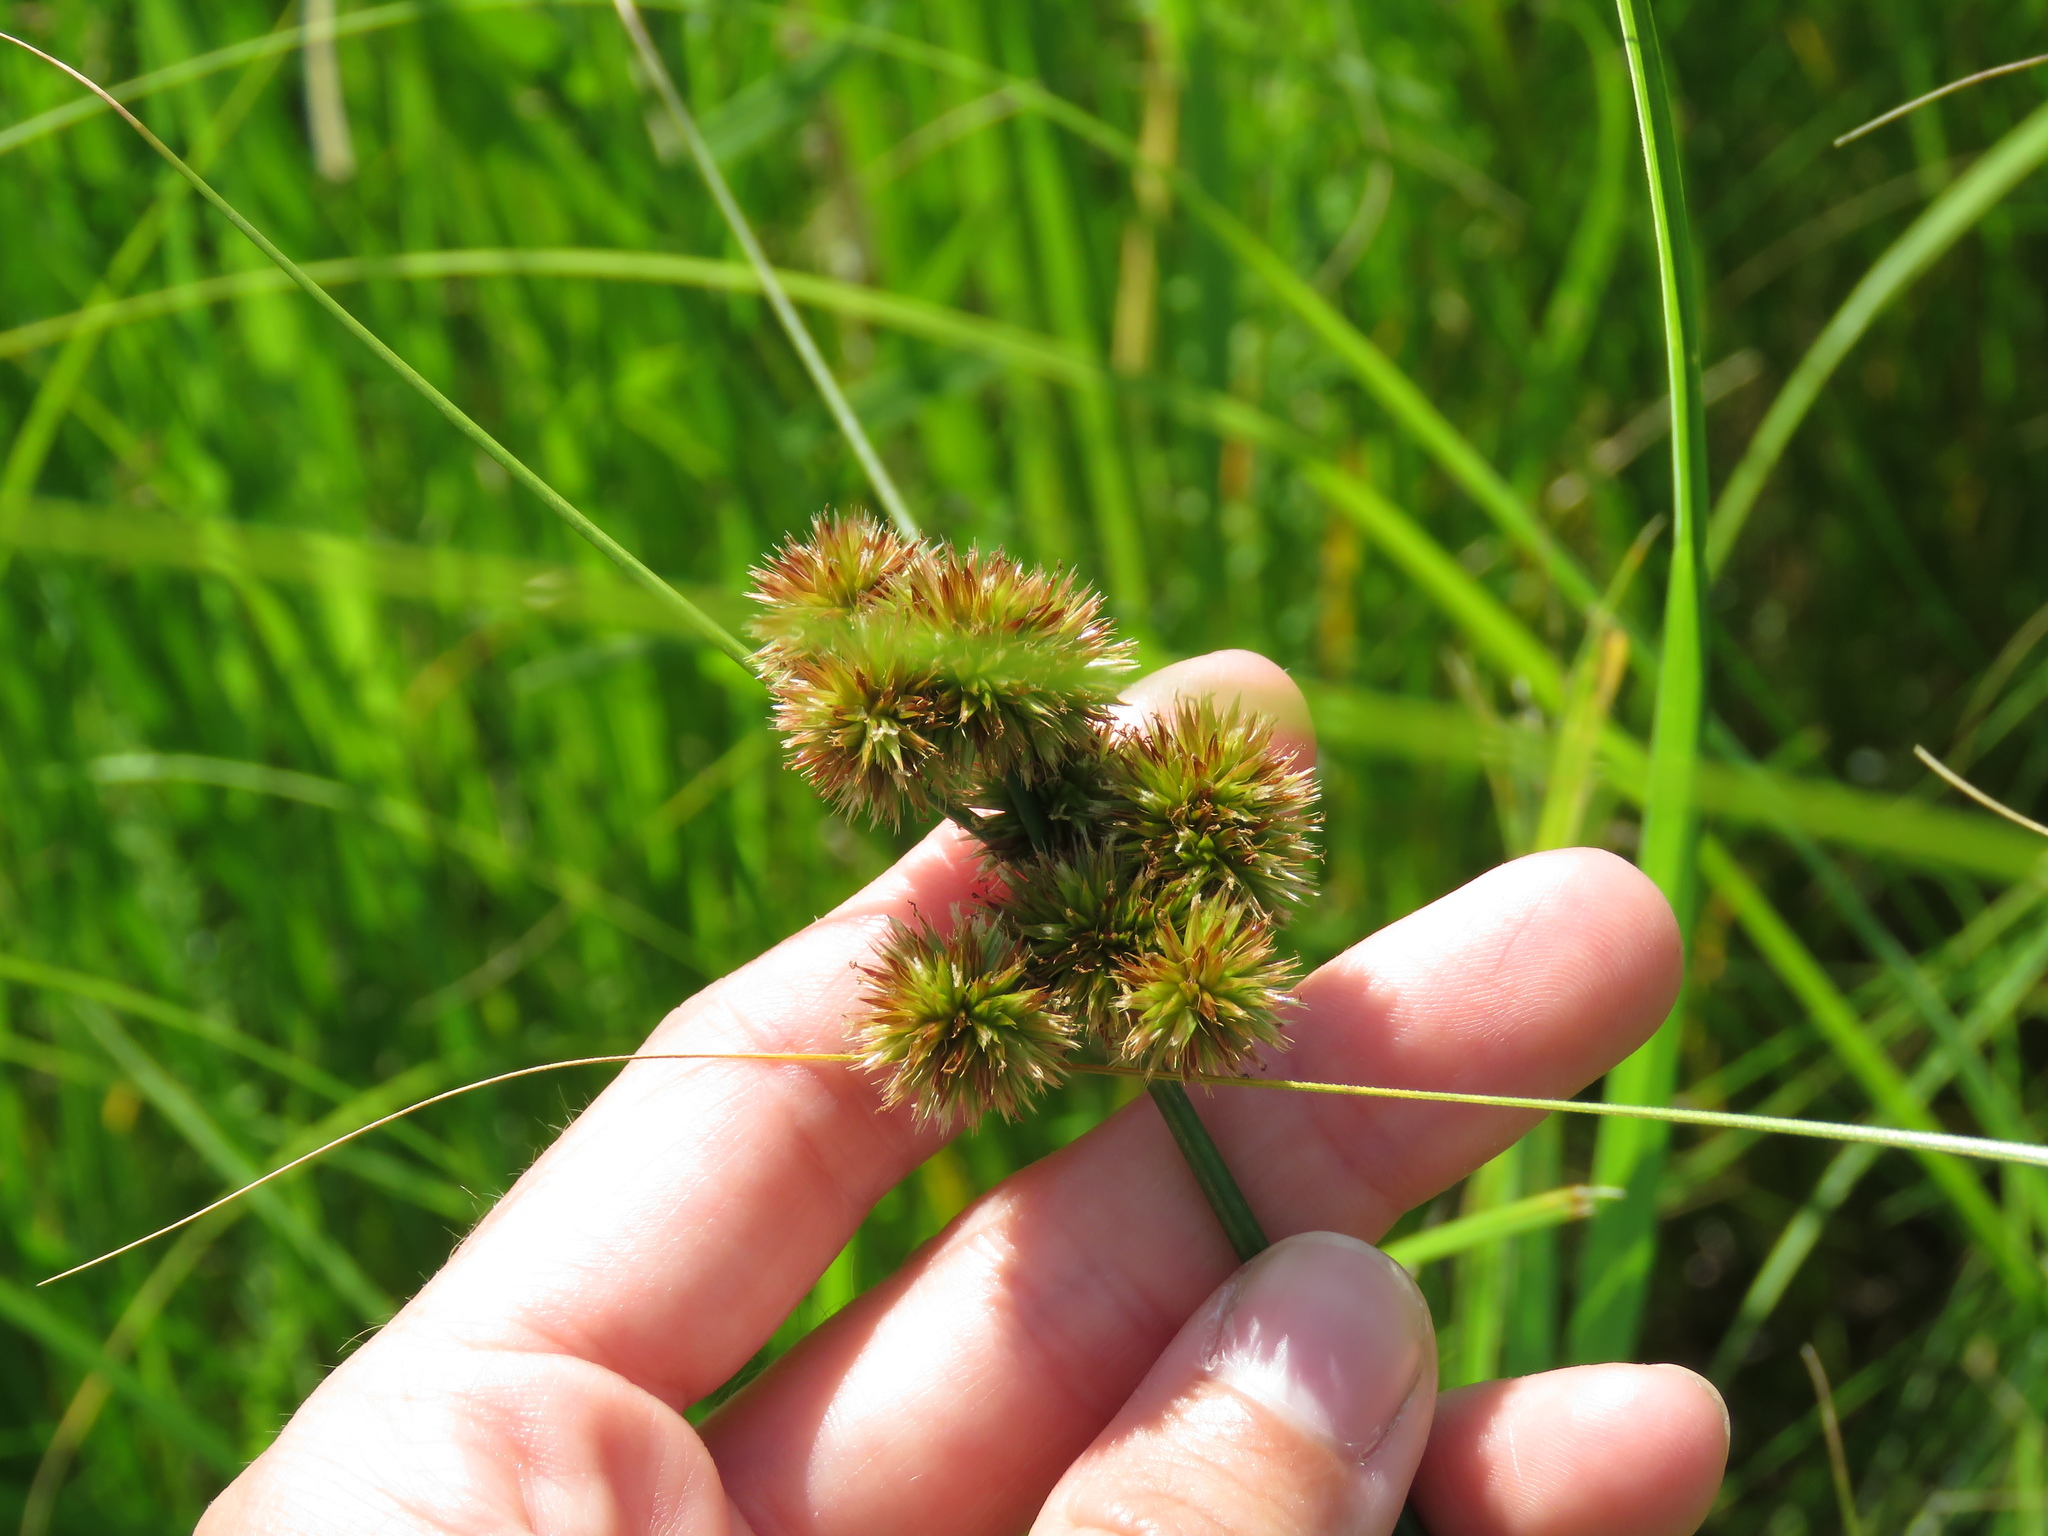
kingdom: Plantae
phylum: Tracheophyta
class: Liliopsida
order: Poales
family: Juncaceae
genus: Juncus
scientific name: Juncus torreyi
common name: Torrey's rush
